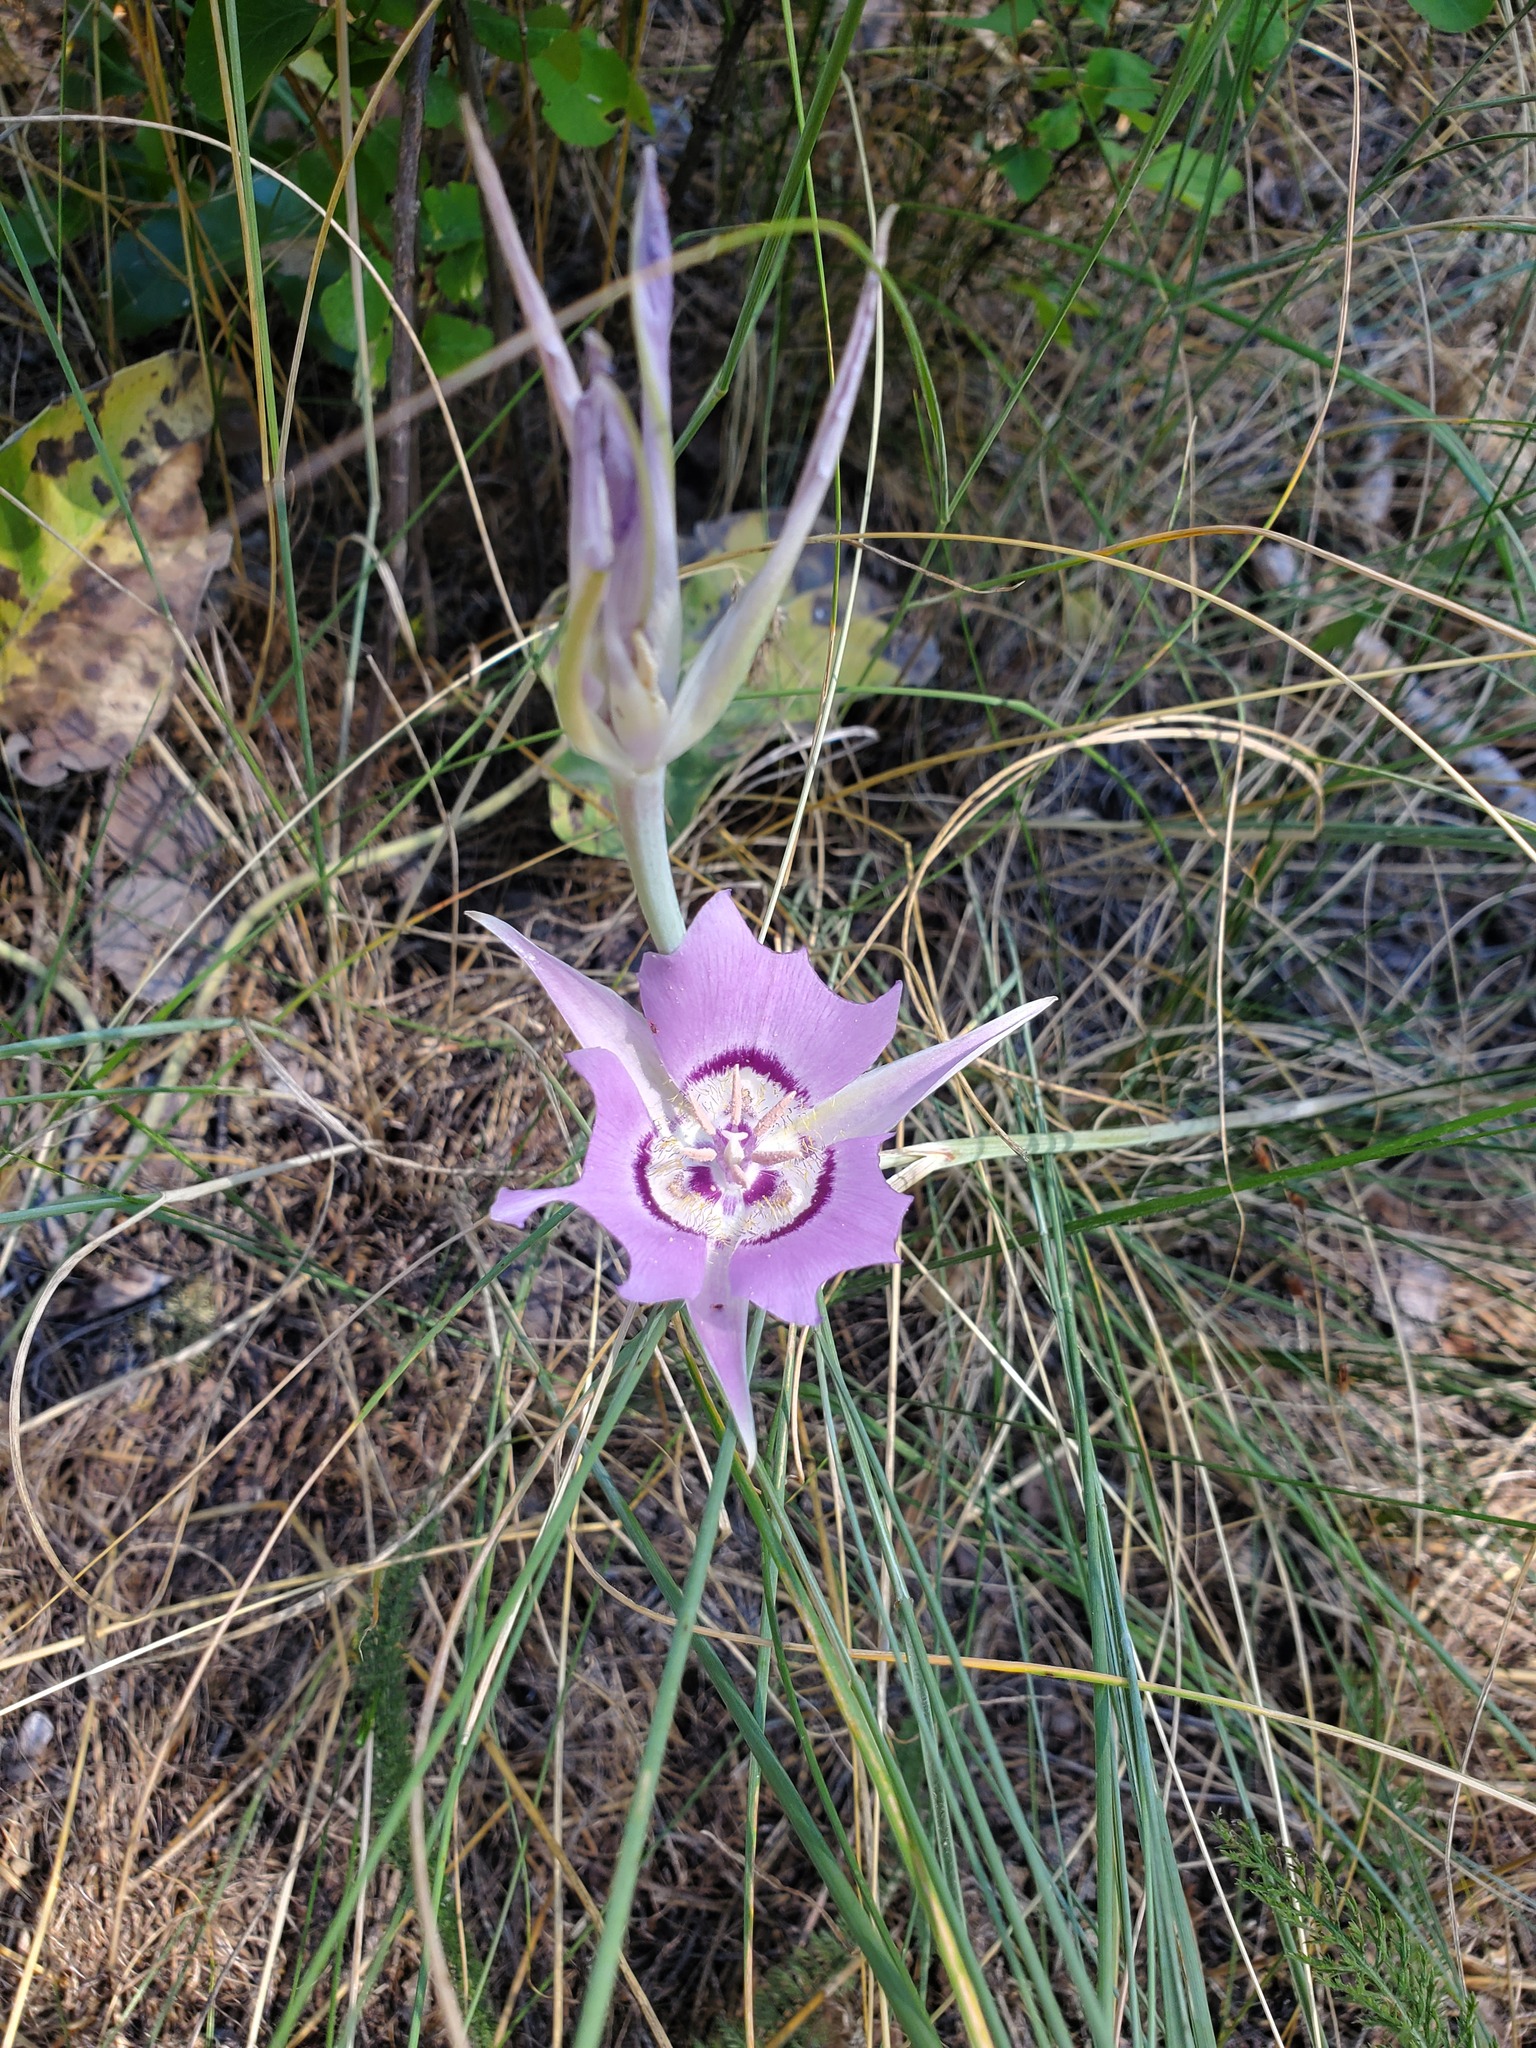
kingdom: Plantae
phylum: Tracheophyta
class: Liliopsida
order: Liliales
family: Liliaceae
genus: Calochortus
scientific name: Calochortus macrocarpus
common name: Green-band mariposa lily
